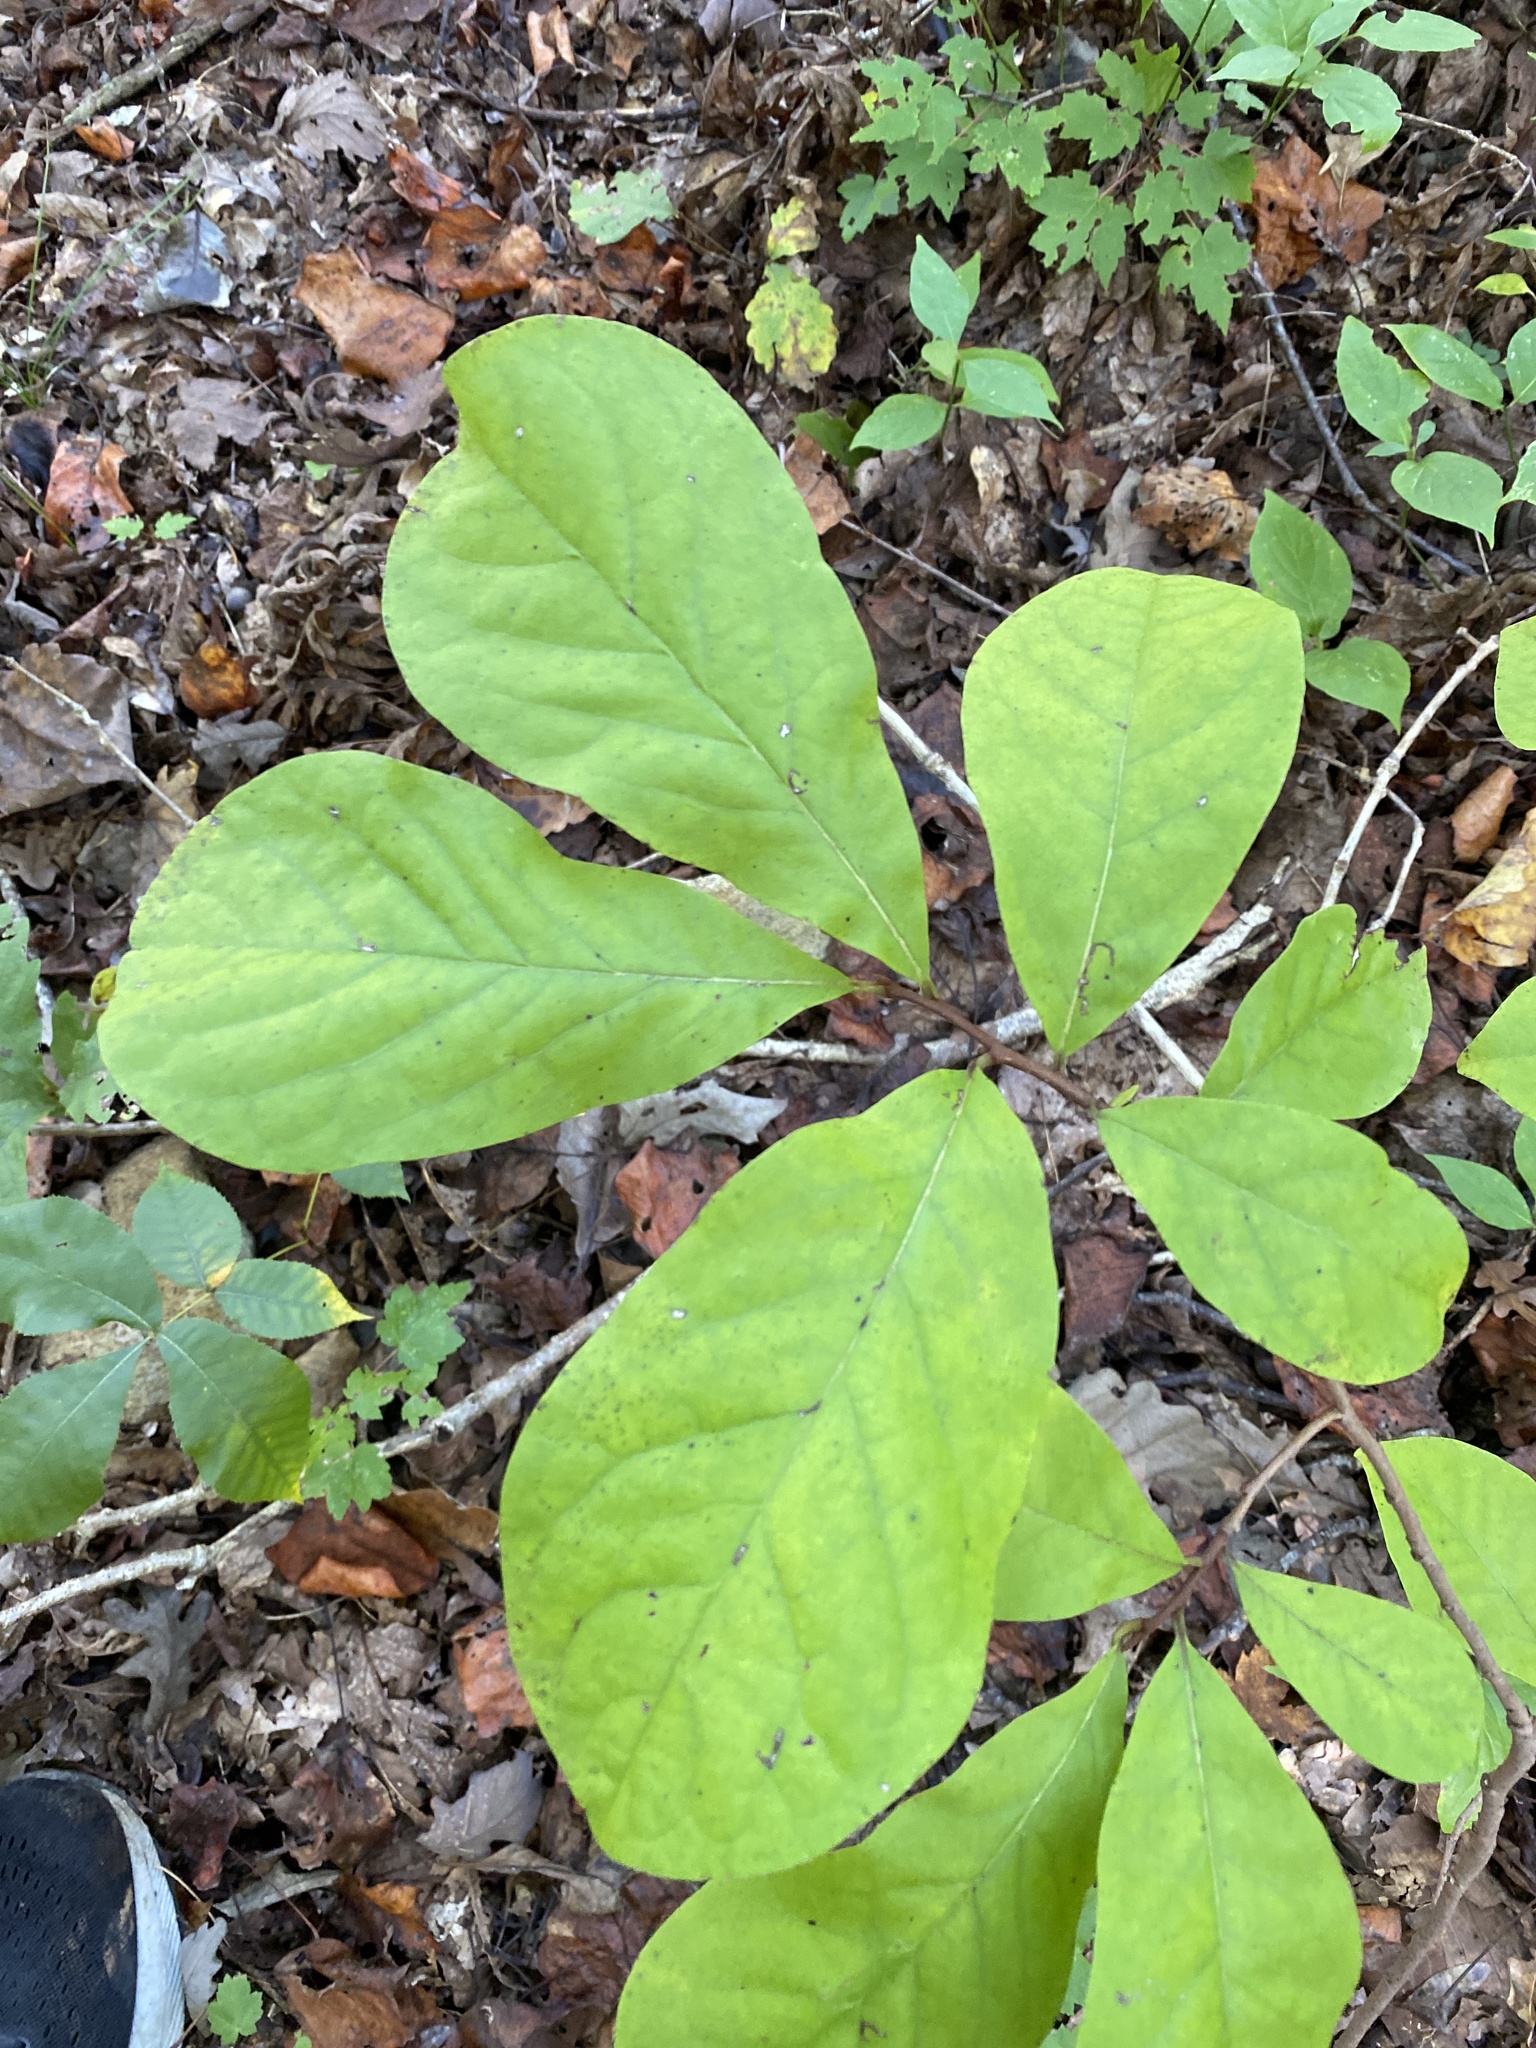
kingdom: Plantae
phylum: Tracheophyta
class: Magnoliopsida
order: Magnoliales
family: Annonaceae
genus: Asimina
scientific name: Asimina parviflora
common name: Dwarf pawpaw
